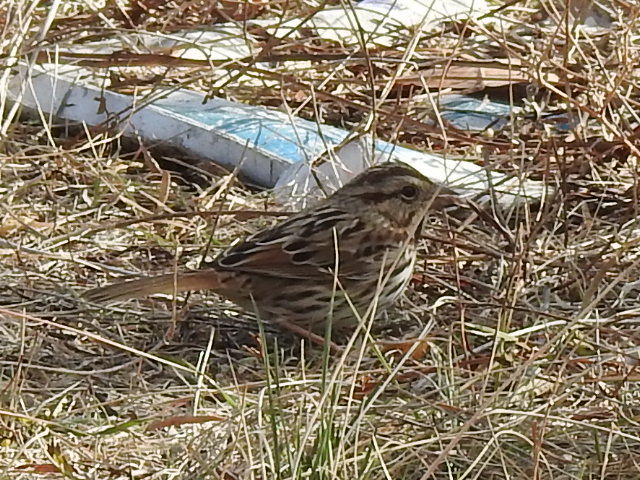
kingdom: Animalia
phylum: Chordata
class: Aves
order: Passeriformes
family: Passerellidae
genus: Melospiza
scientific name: Melospiza melodia
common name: Song sparrow
